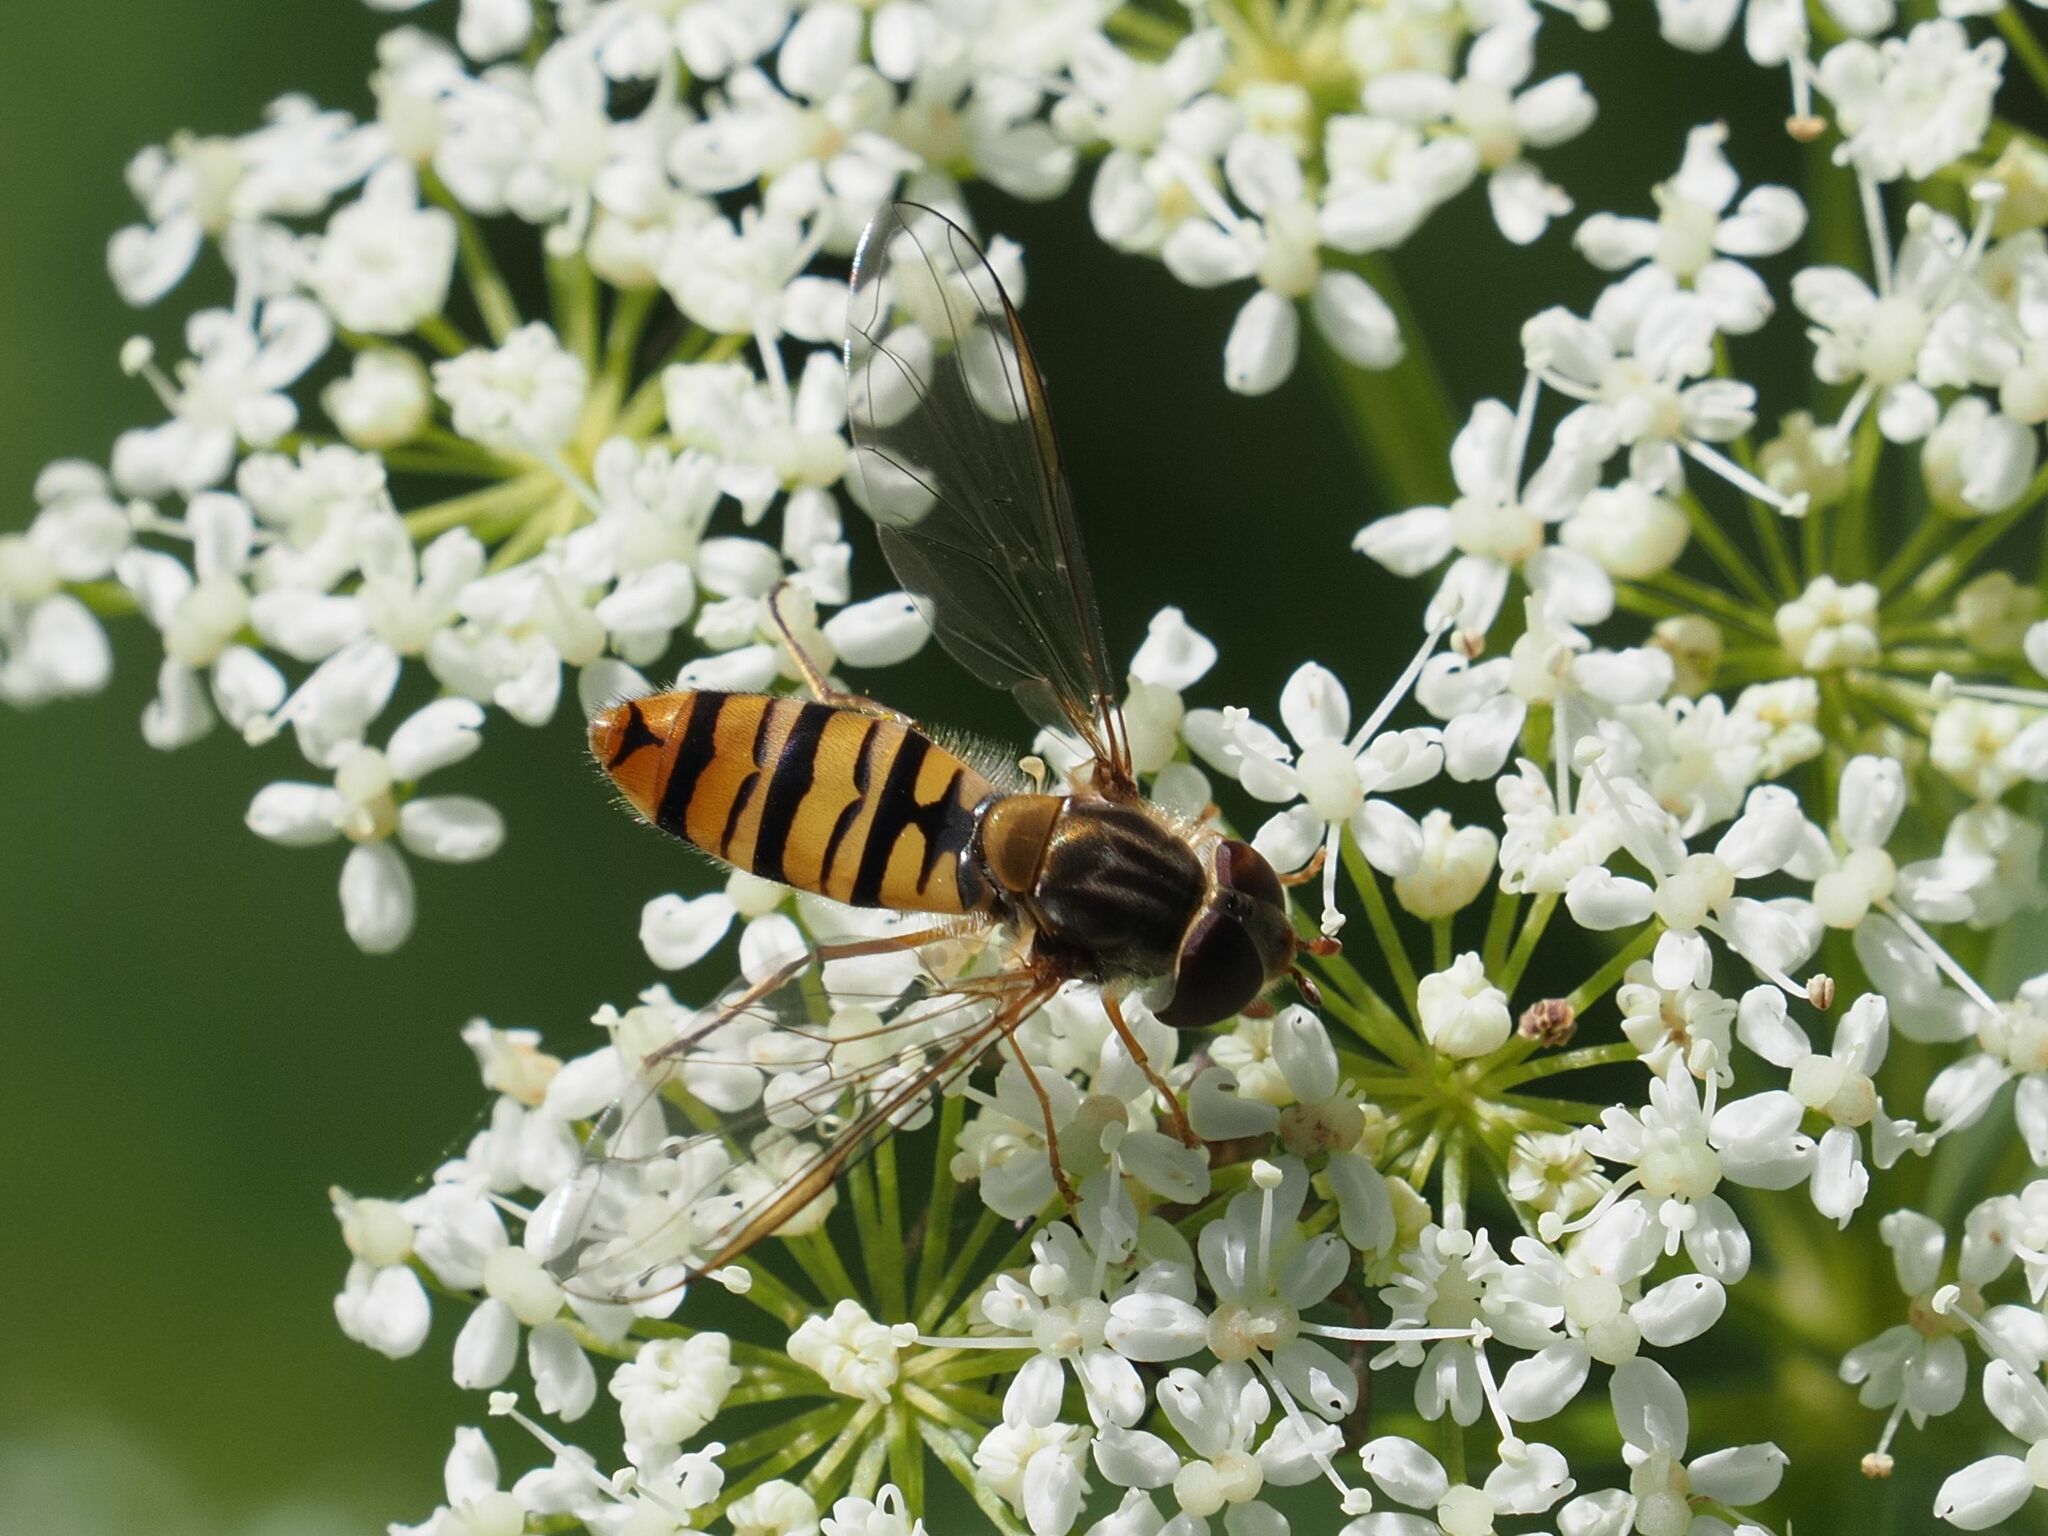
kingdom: Animalia
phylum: Arthropoda
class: Insecta
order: Diptera
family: Syrphidae
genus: Episyrphus
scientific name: Episyrphus balteatus
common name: Marmalade hoverfly
